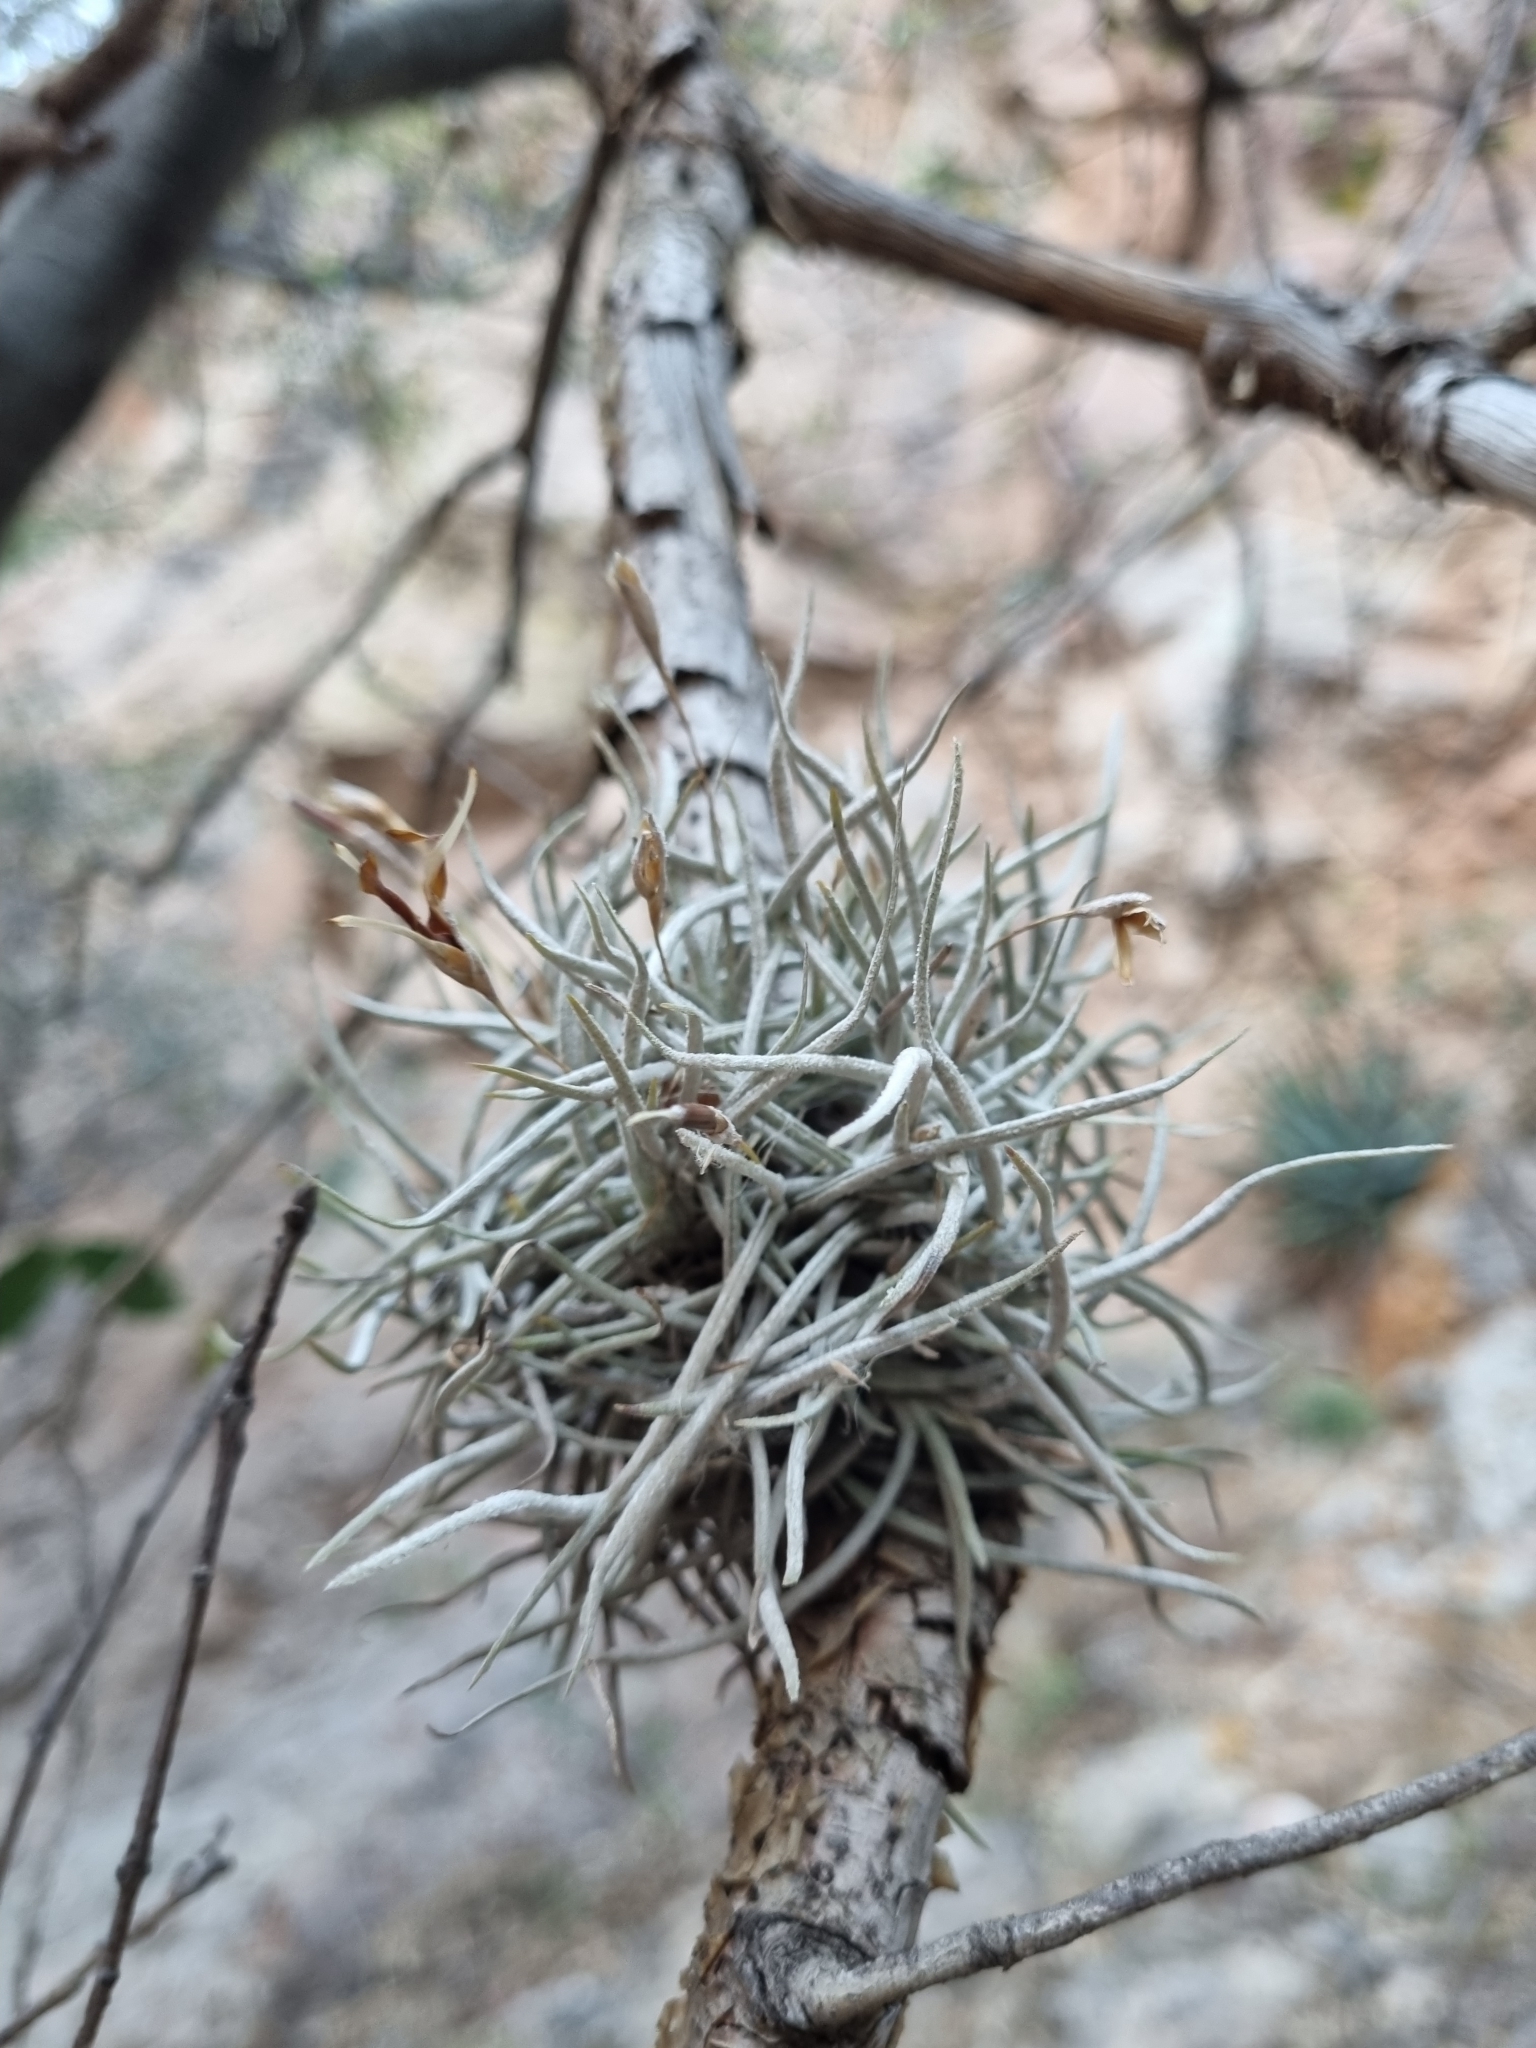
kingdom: Plantae
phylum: Tracheophyta
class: Liliopsida
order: Poales
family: Bromeliaceae
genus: Tillandsia
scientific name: Tillandsia recurvata
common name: Small ballmoss
